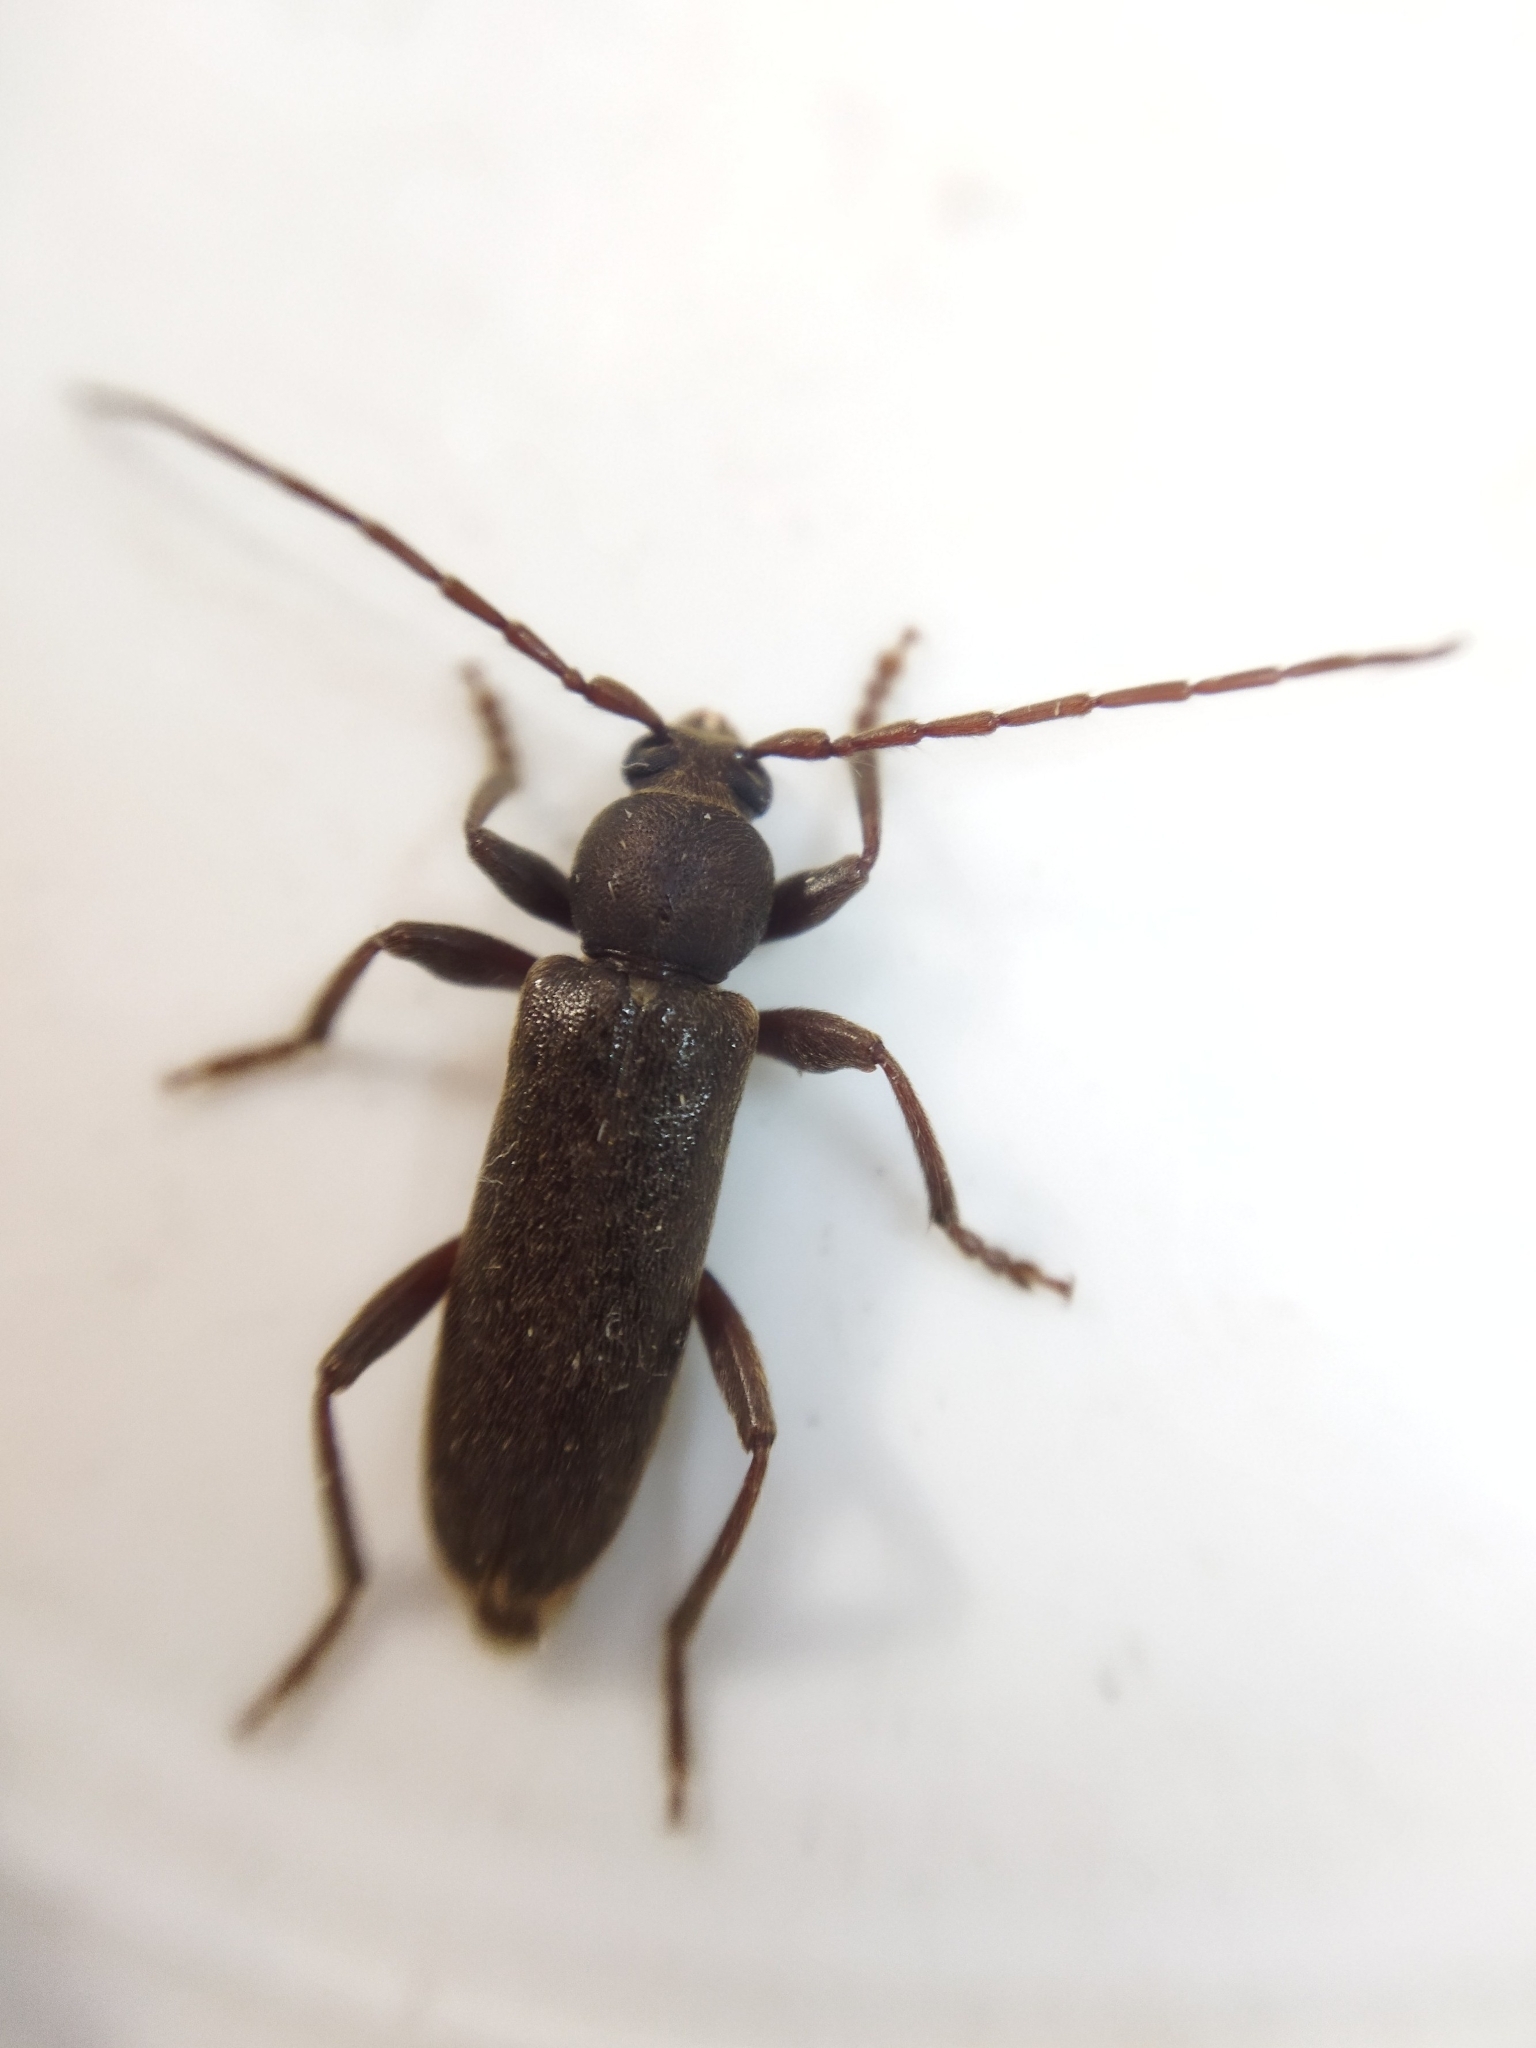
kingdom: Animalia
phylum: Arthropoda
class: Insecta
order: Coleoptera
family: Cerambycidae
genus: Trichoferus
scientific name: Trichoferus campestris
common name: Velvet long horned beetle
